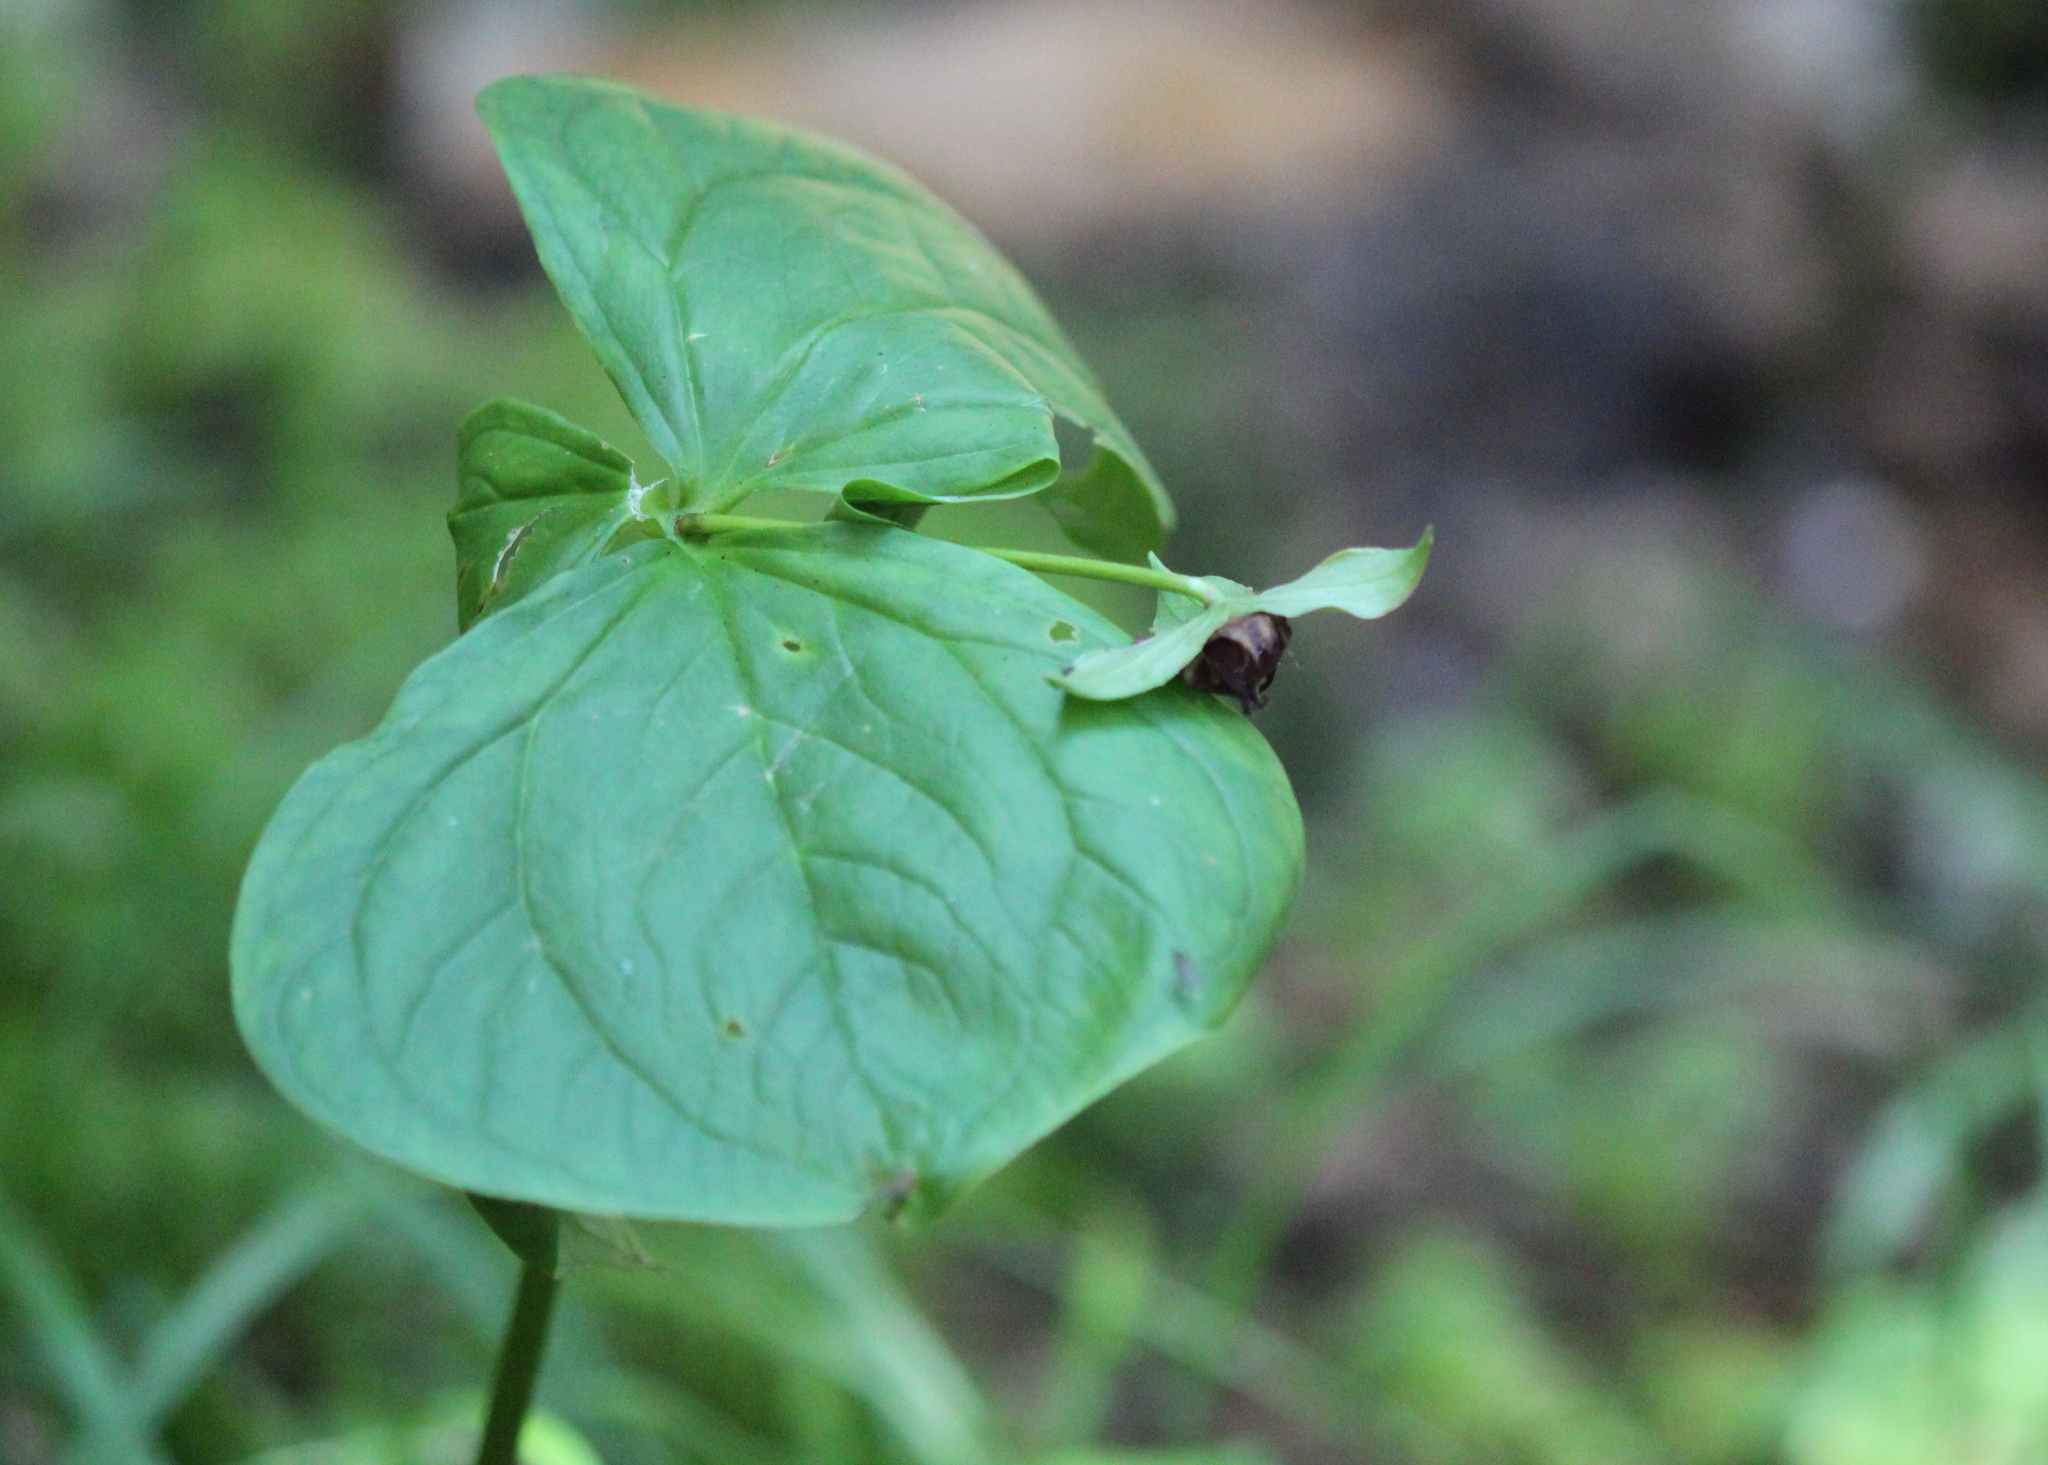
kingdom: Plantae
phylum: Tracheophyta
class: Liliopsida
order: Liliales
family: Melanthiaceae
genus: Trillium
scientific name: Trillium erectum
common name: Purple trillium
